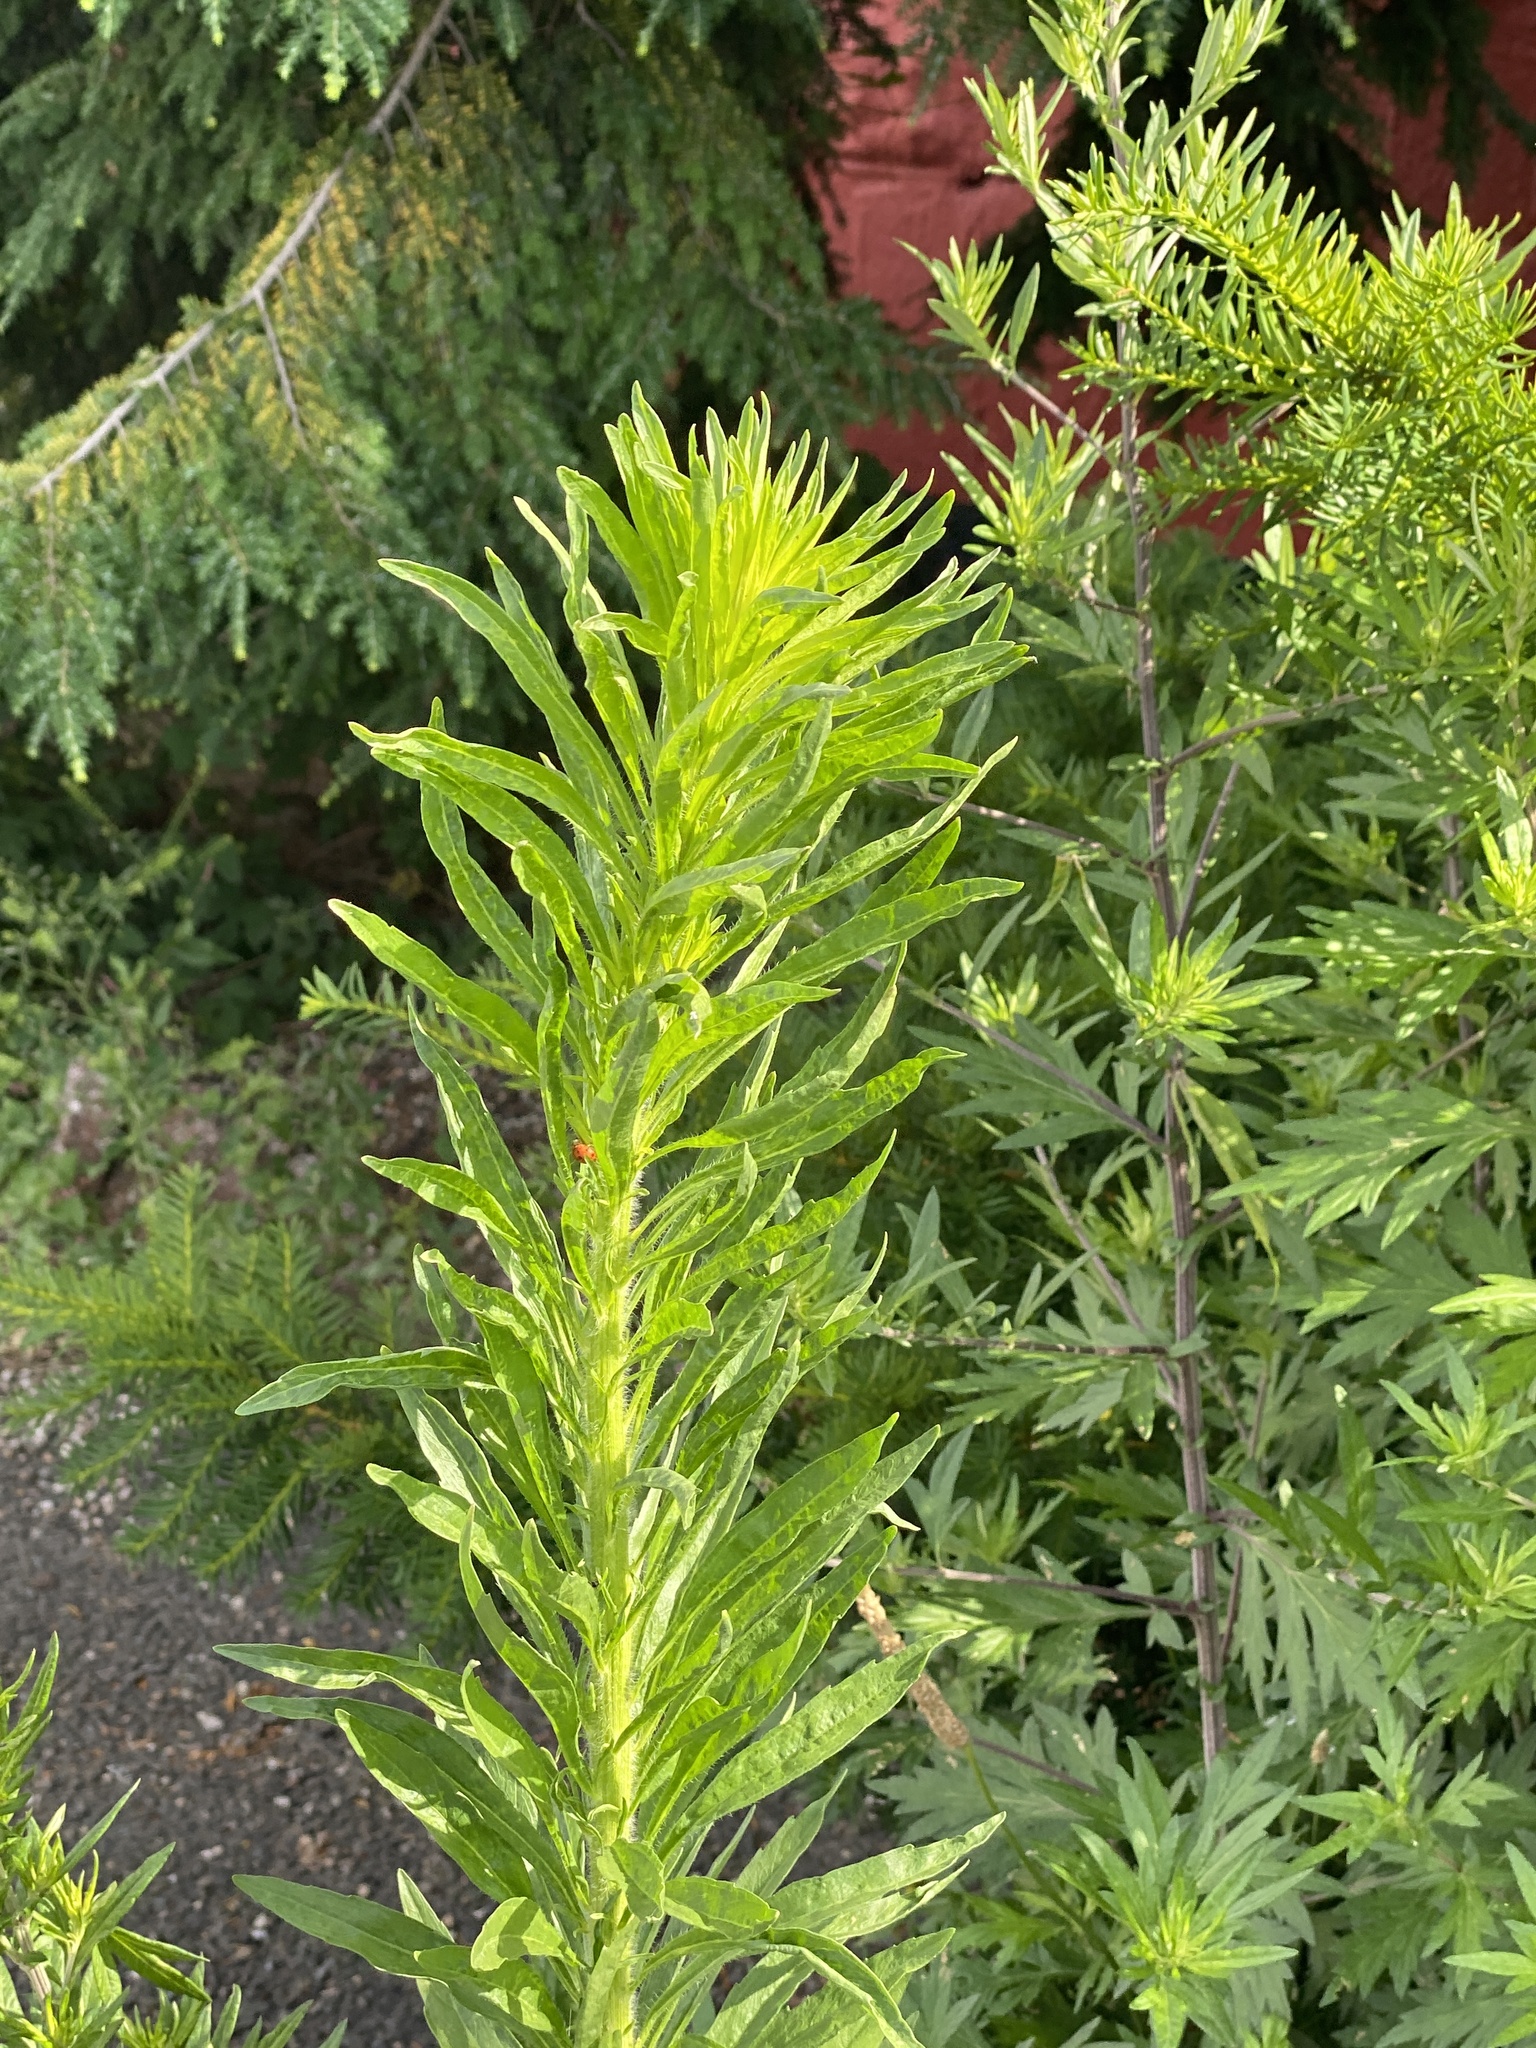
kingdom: Plantae
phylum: Tracheophyta
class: Magnoliopsida
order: Asterales
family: Asteraceae
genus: Erigeron
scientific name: Erigeron canadensis
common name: Canadian fleabane
